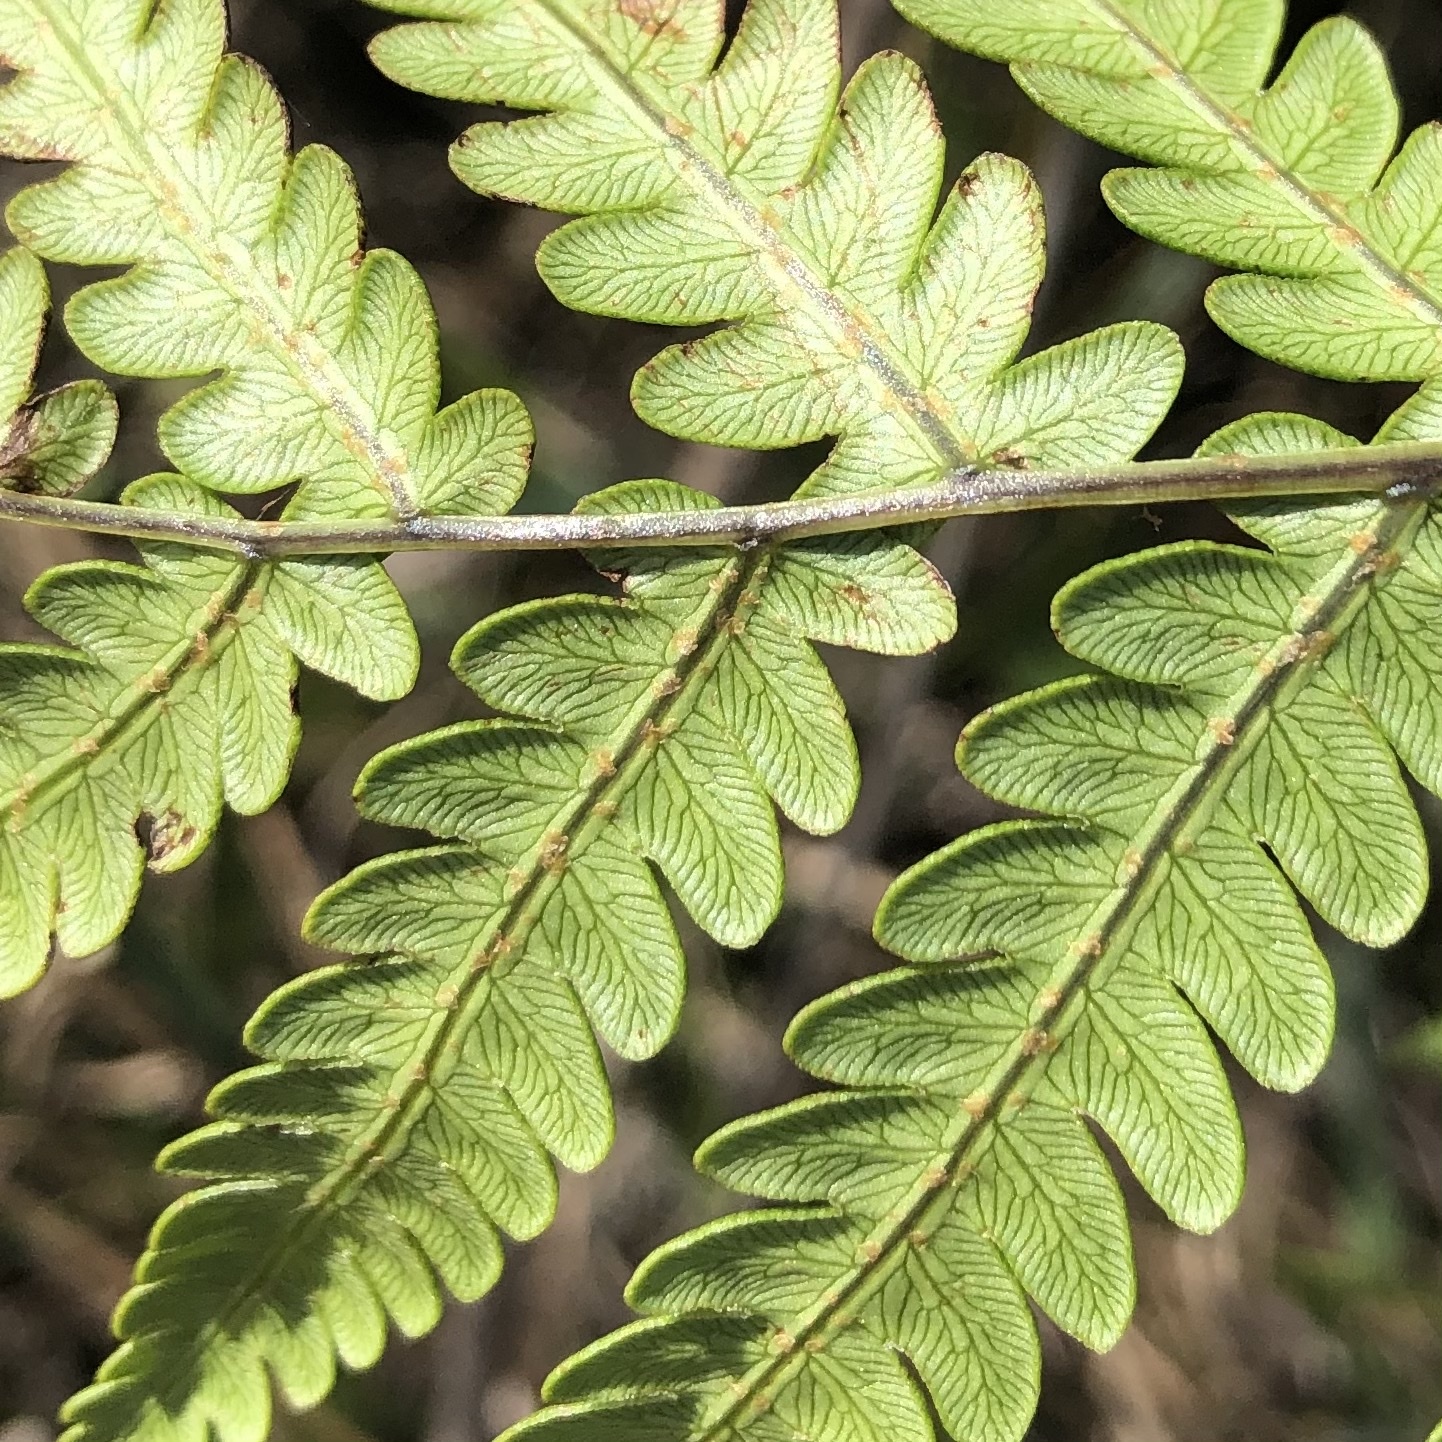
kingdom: Plantae
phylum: Tracheophyta
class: Polypodiopsida
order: Polypodiales
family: Blechnaceae
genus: Anchistea
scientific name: Anchistea virginica
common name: Virginia chain fern
